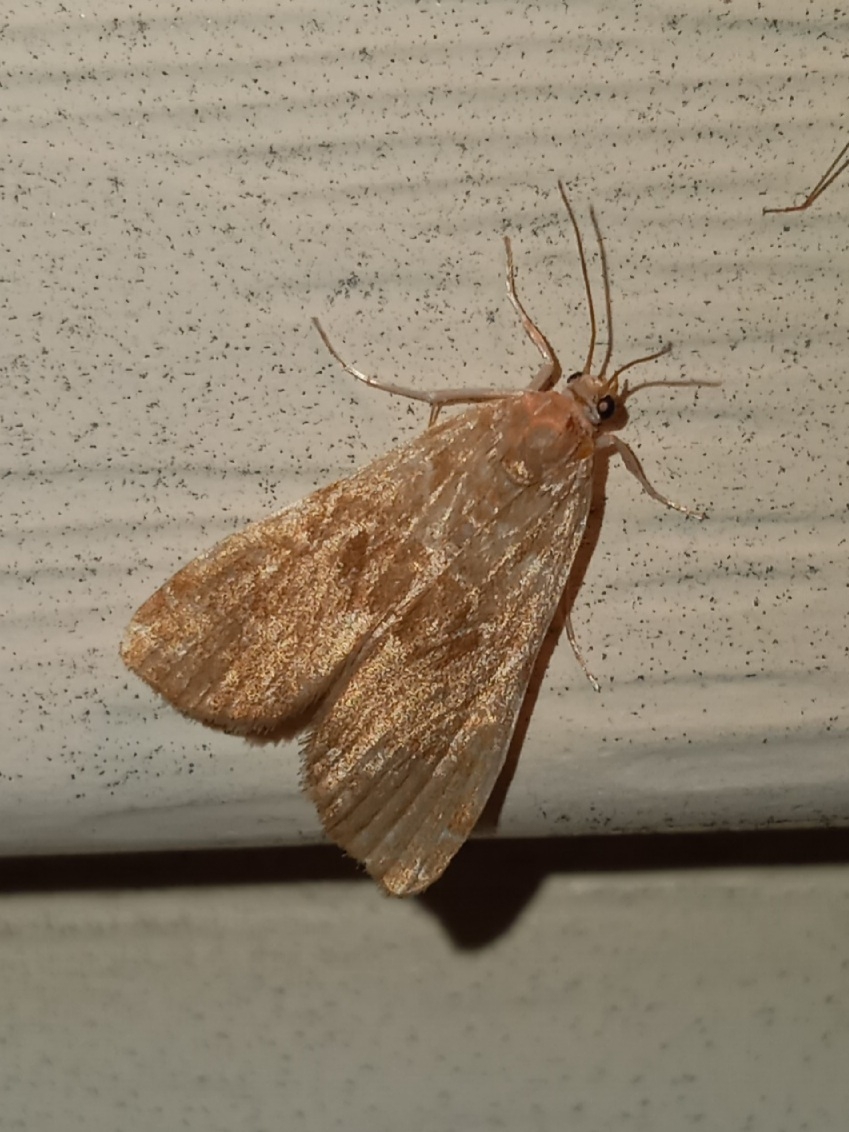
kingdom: Animalia
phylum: Arthropoda
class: Insecta
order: Lepidoptera
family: Crambidae
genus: Elophila
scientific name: Elophila gyralis
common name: Waterlily borer moth
